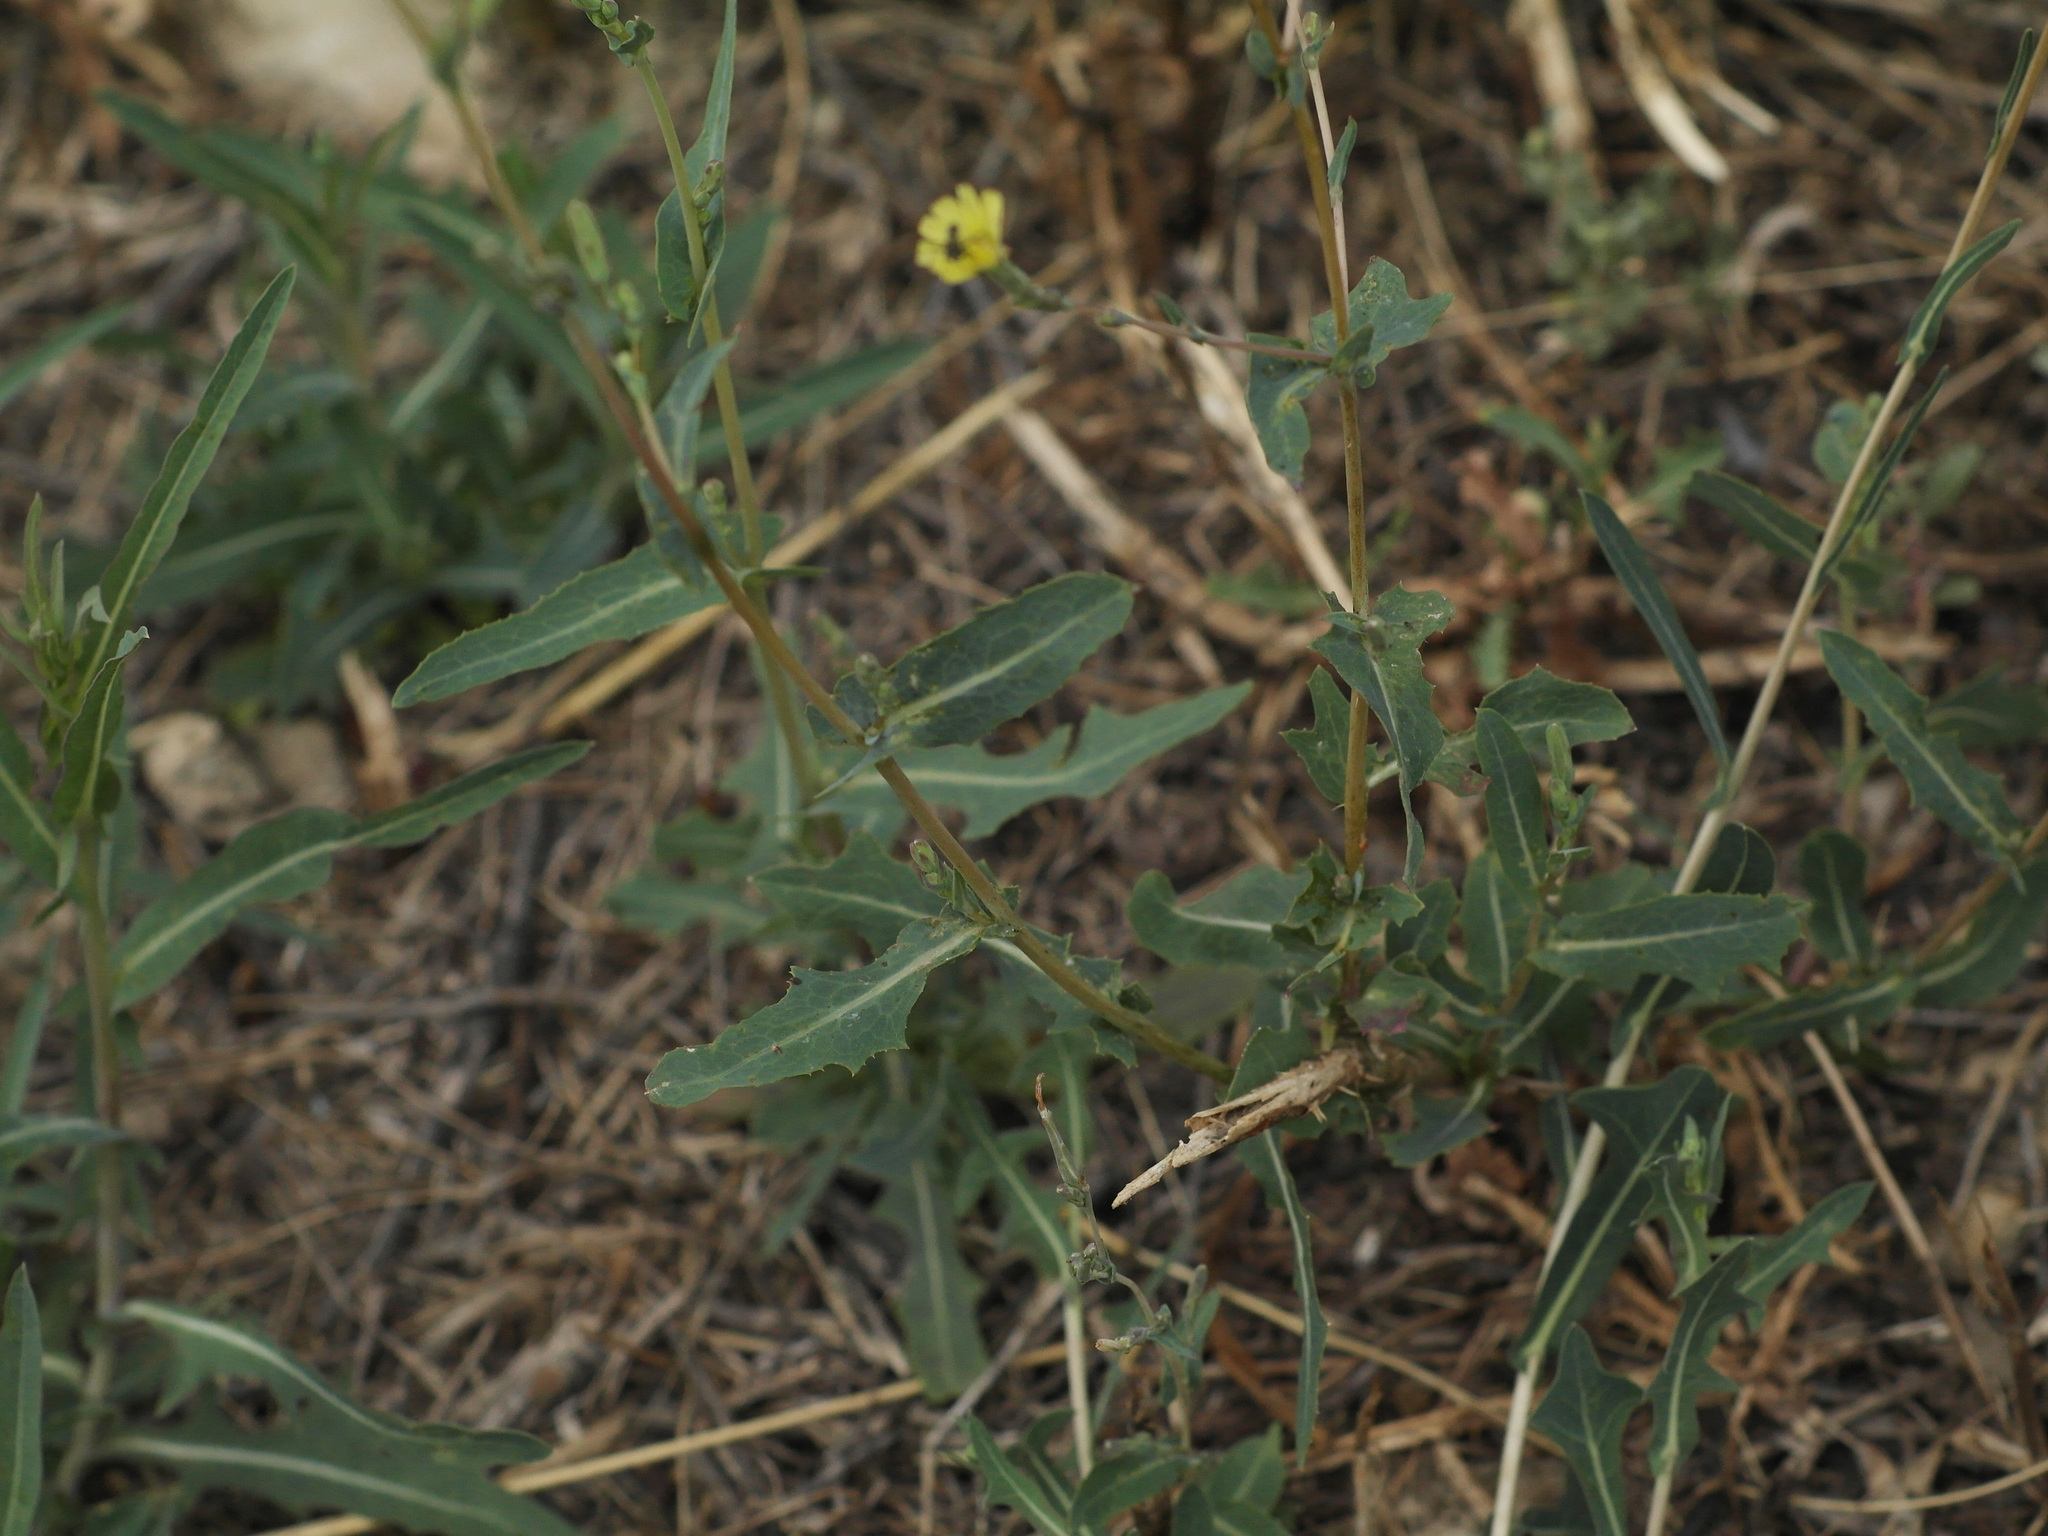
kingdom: Plantae
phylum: Tracheophyta
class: Magnoliopsida
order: Asterales
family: Asteraceae
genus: Lactuca
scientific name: Lactuca serriola
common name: Prickly lettuce
